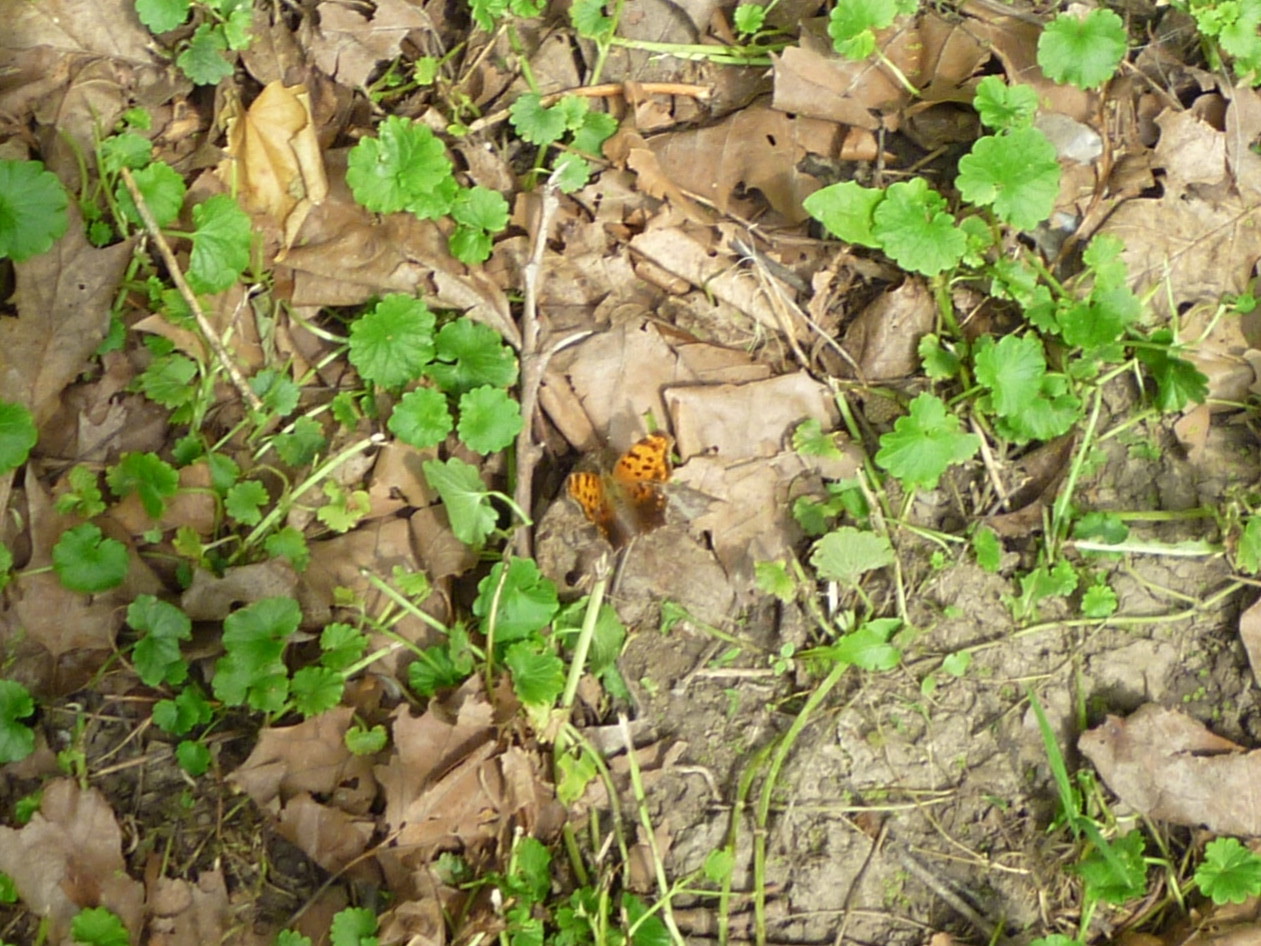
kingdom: Animalia
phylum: Arthropoda
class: Insecta
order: Lepidoptera
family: Nymphalidae
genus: Polygonia
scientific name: Polygonia comma
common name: Eastern comma
